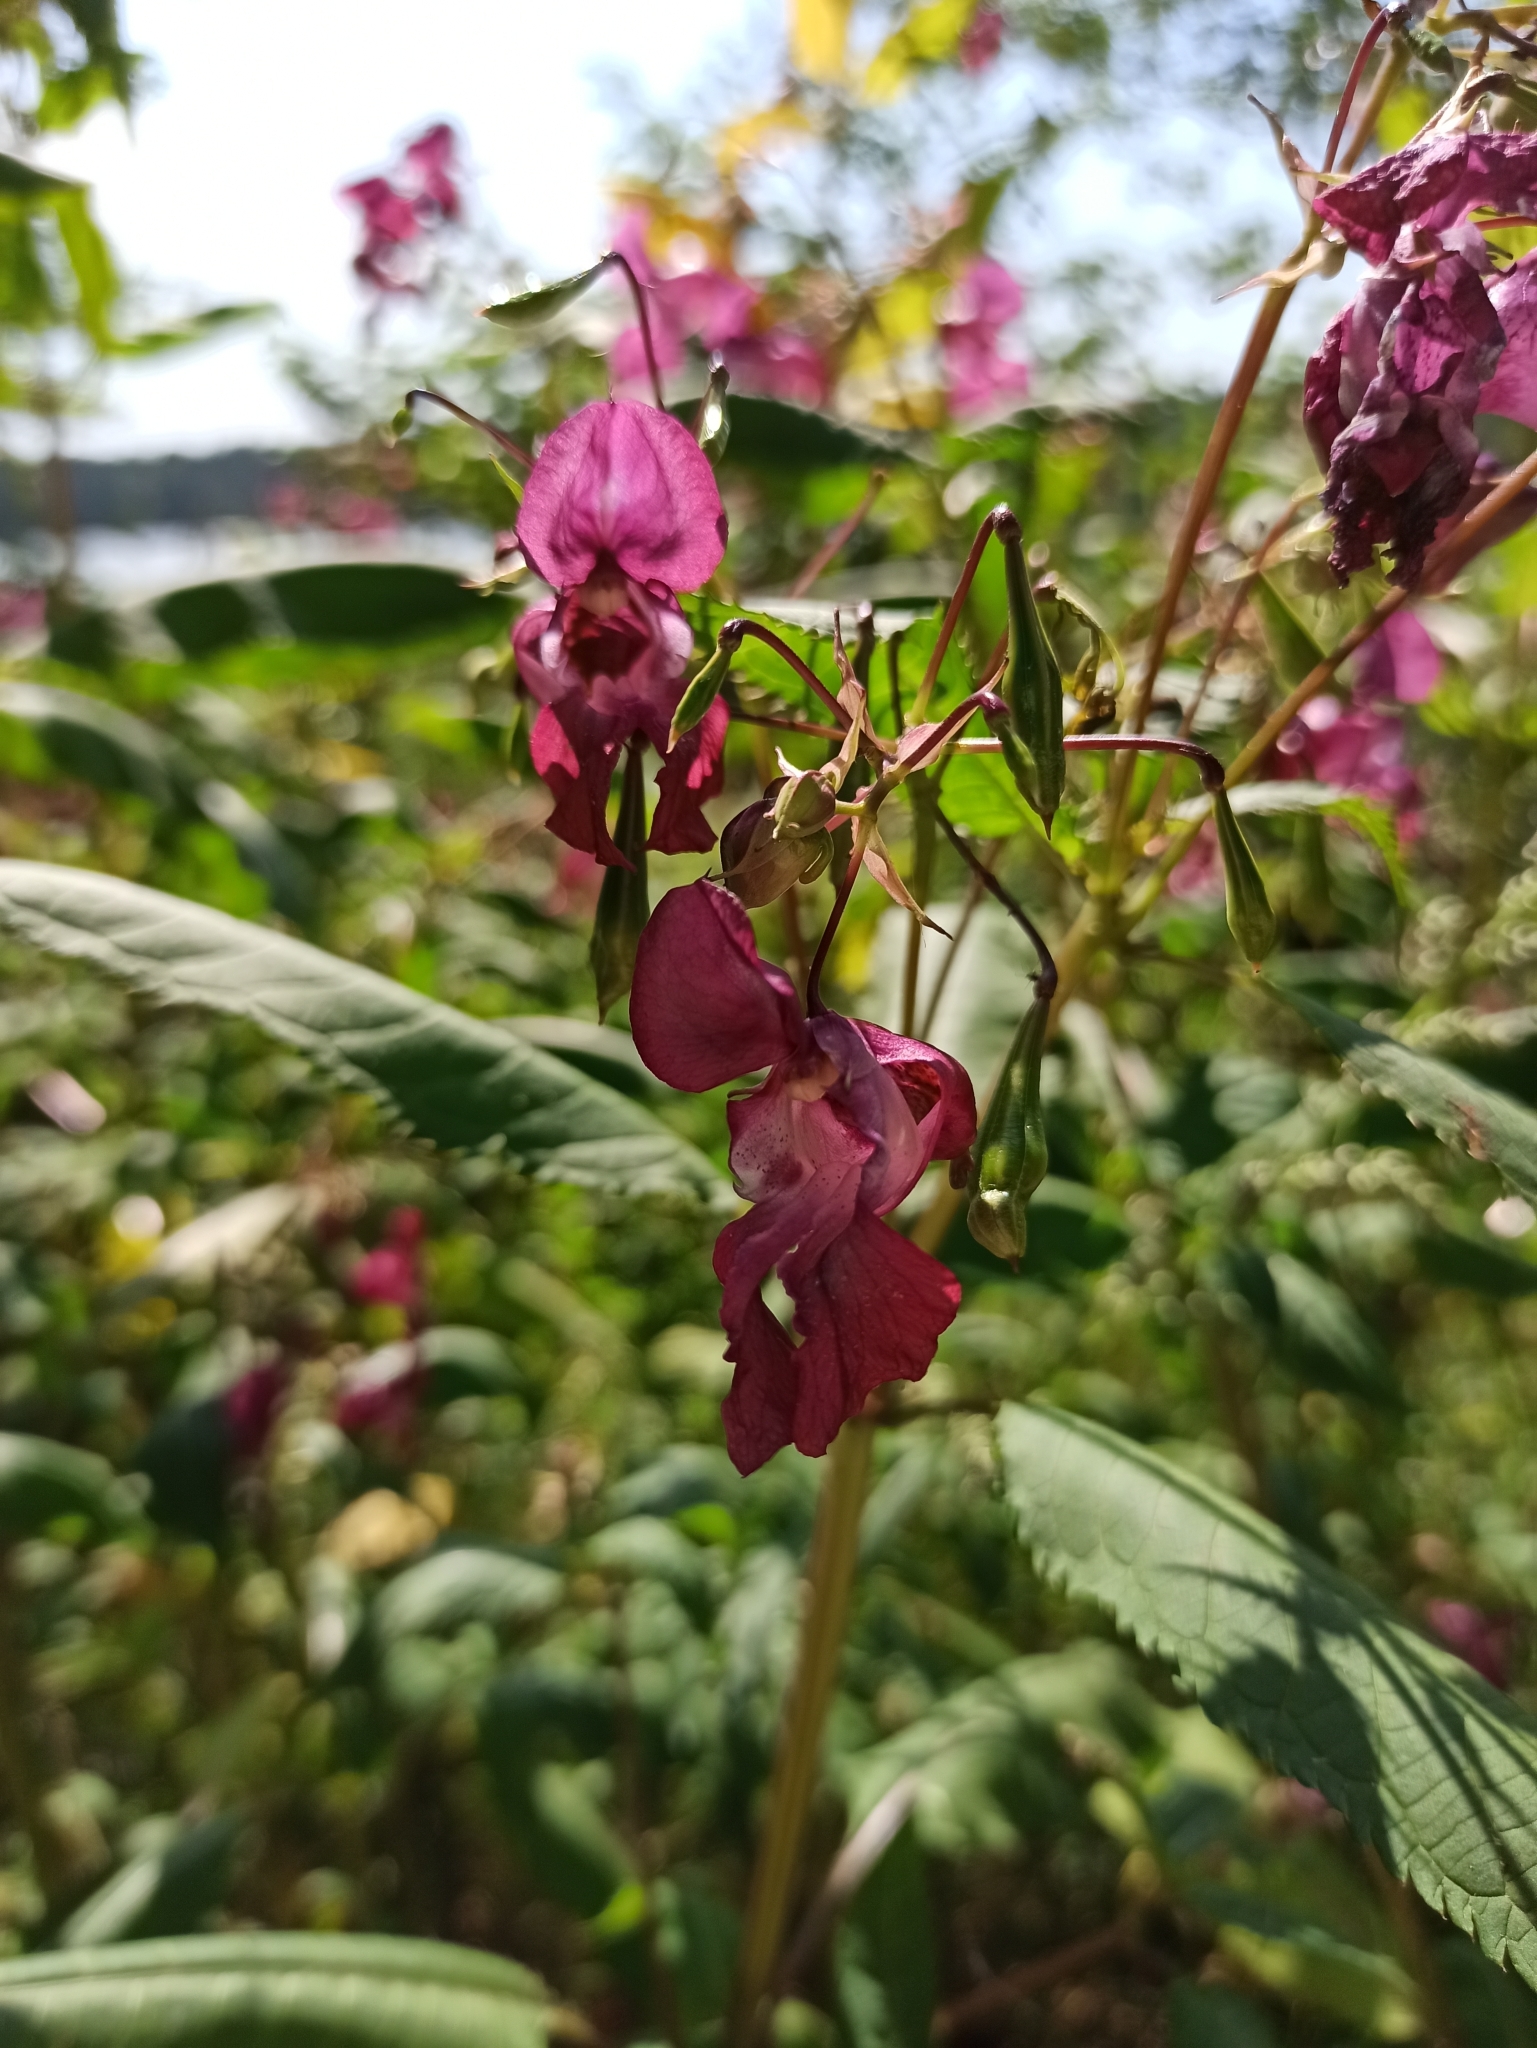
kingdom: Plantae
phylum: Tracheophyta
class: Magnoliopsida
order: Ericales
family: Balsaminaceae
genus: Impatiens
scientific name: Impatiens glandulifera
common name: Himalayan balsam
